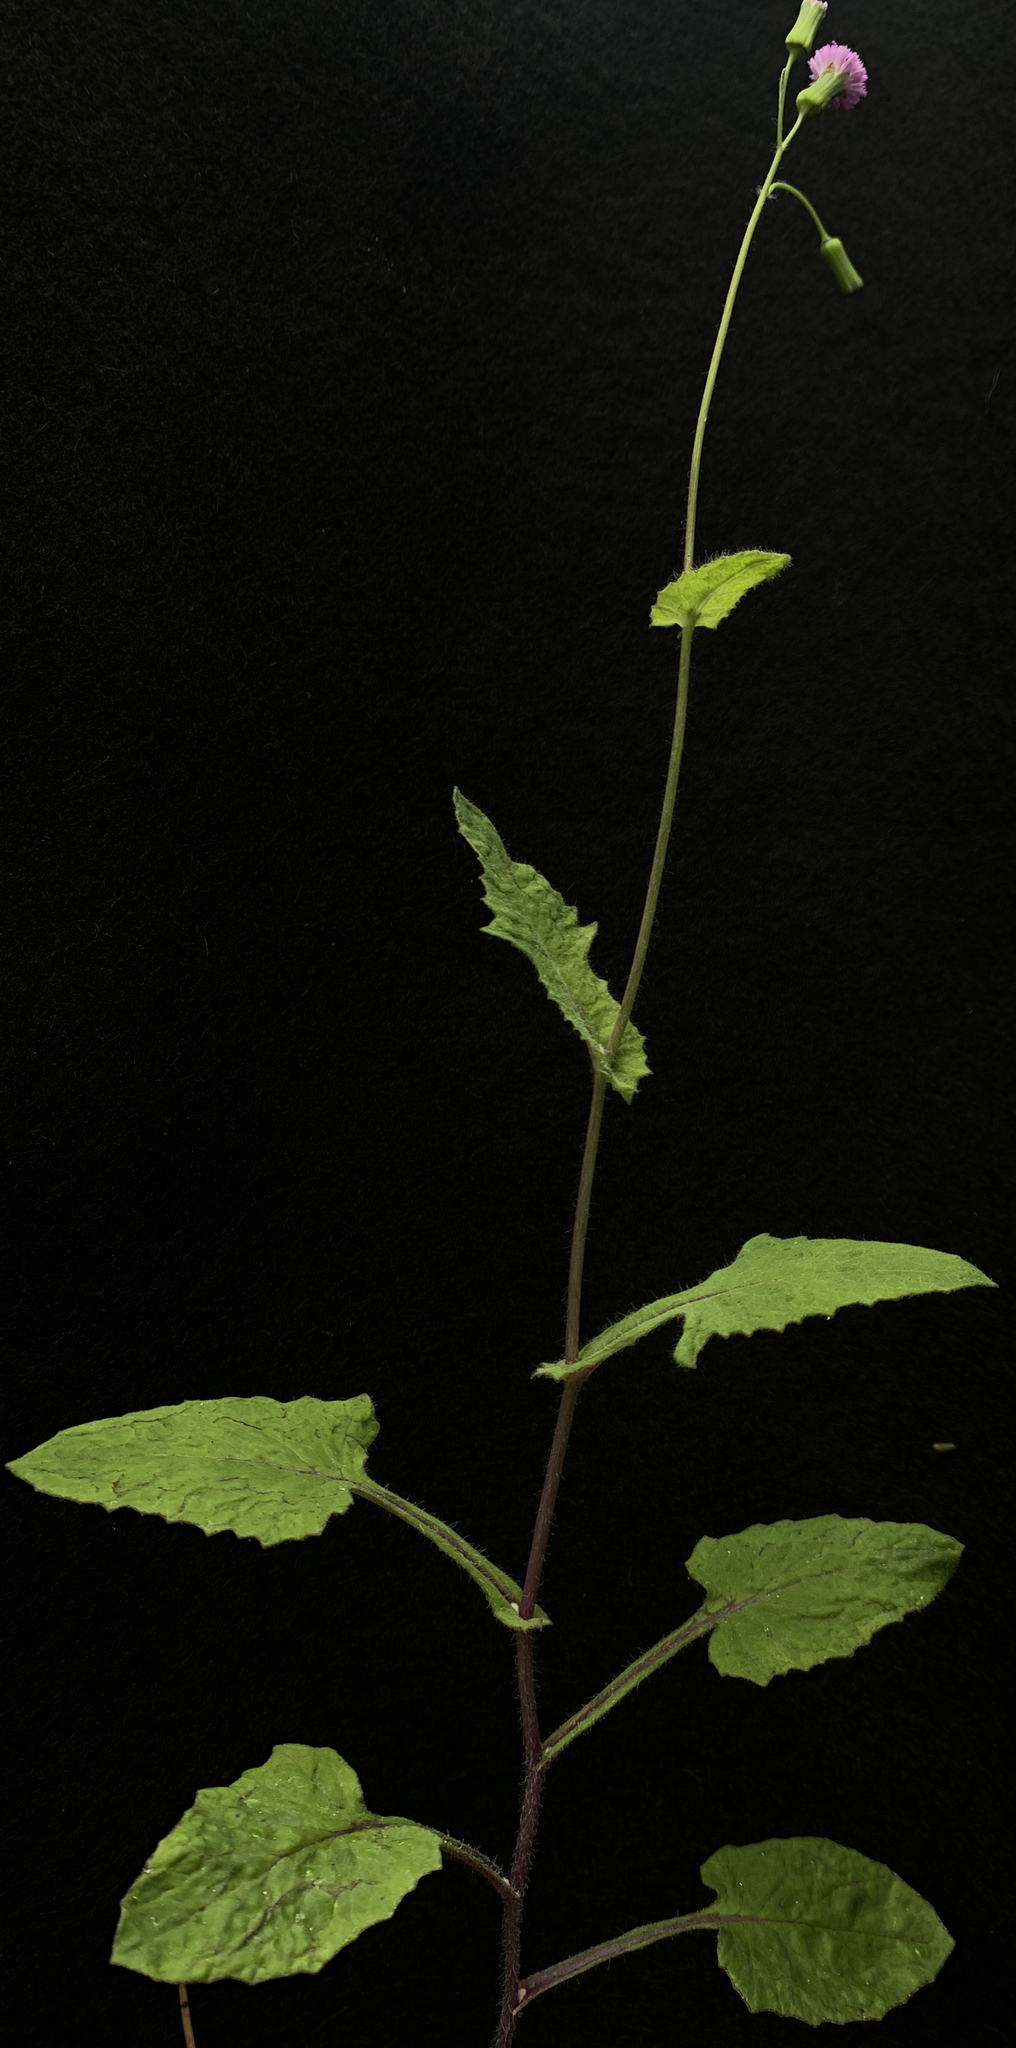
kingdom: Plantae
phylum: Tracheophyta
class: Magnoliopsida
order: Asterales
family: Asteraceae
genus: Emilia
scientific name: Emilia sonchifolia
